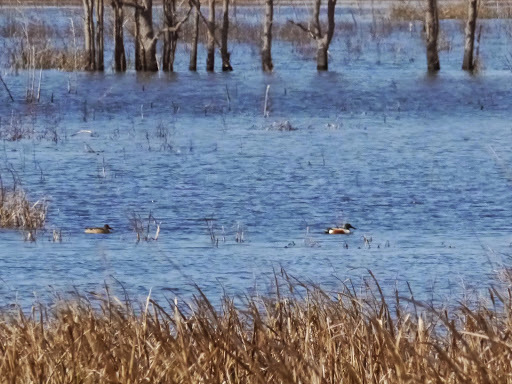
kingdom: Animalia
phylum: Chordata
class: Aves
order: Anseriformes
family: Anatidae
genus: Spatula
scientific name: Spatula clypeata
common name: Northern shoveler
